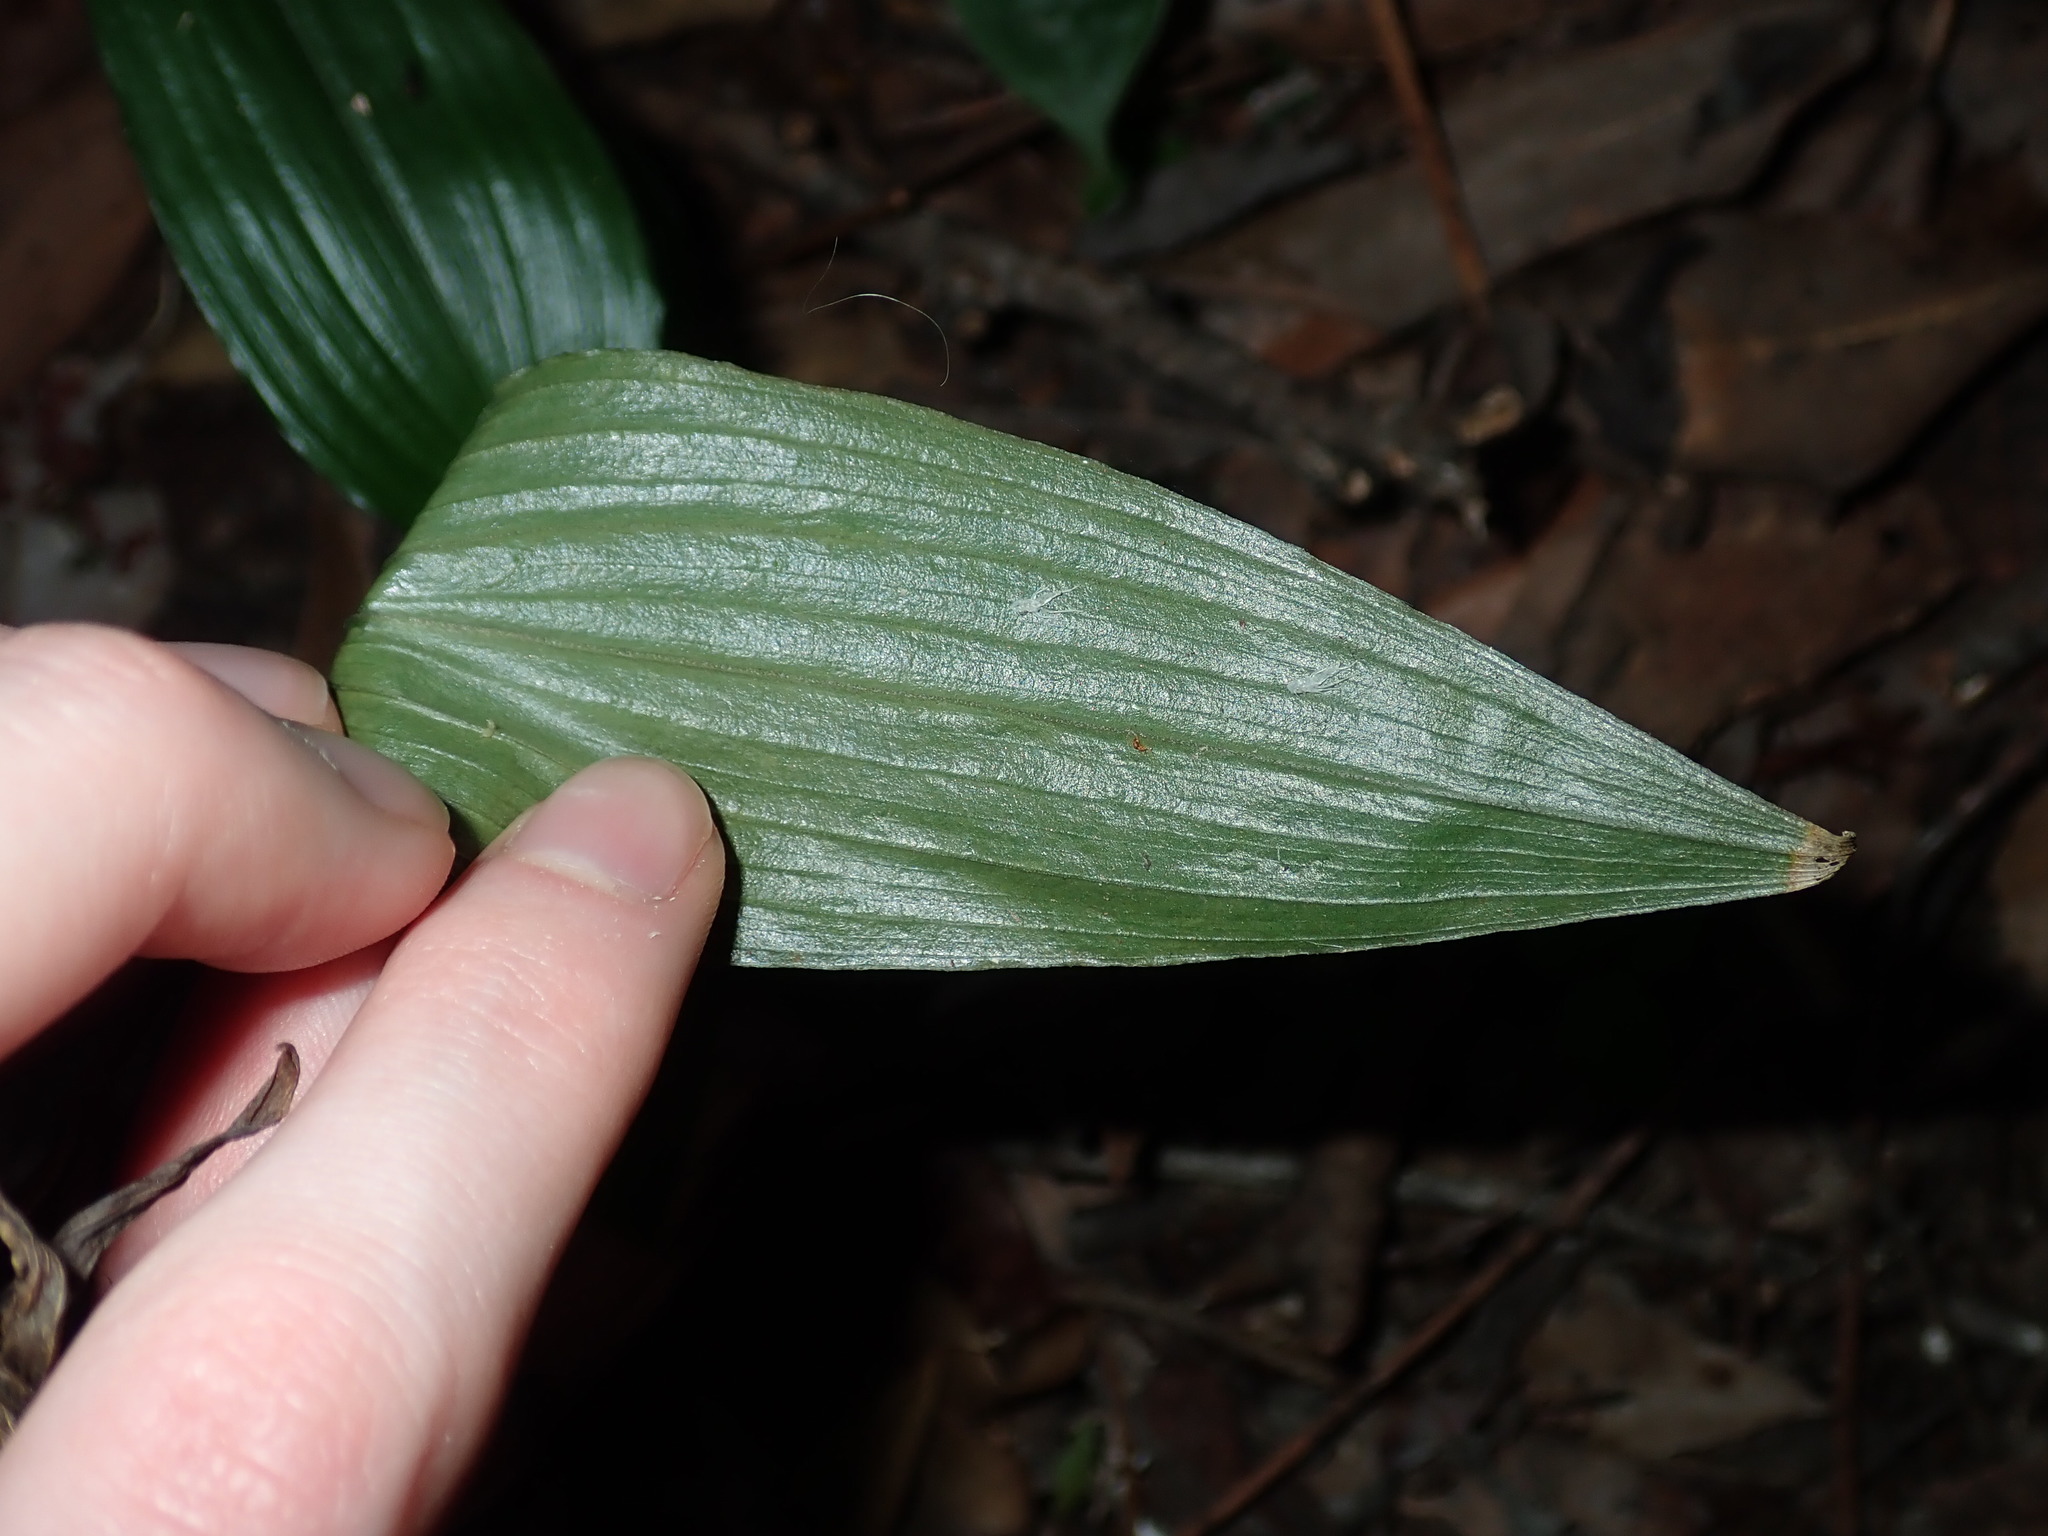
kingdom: Plantae
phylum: Tracheophyta
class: Liliopsida
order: Liliales
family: Colchicaceae
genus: Tripladenia
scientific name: Tripladenia cunninghamii
